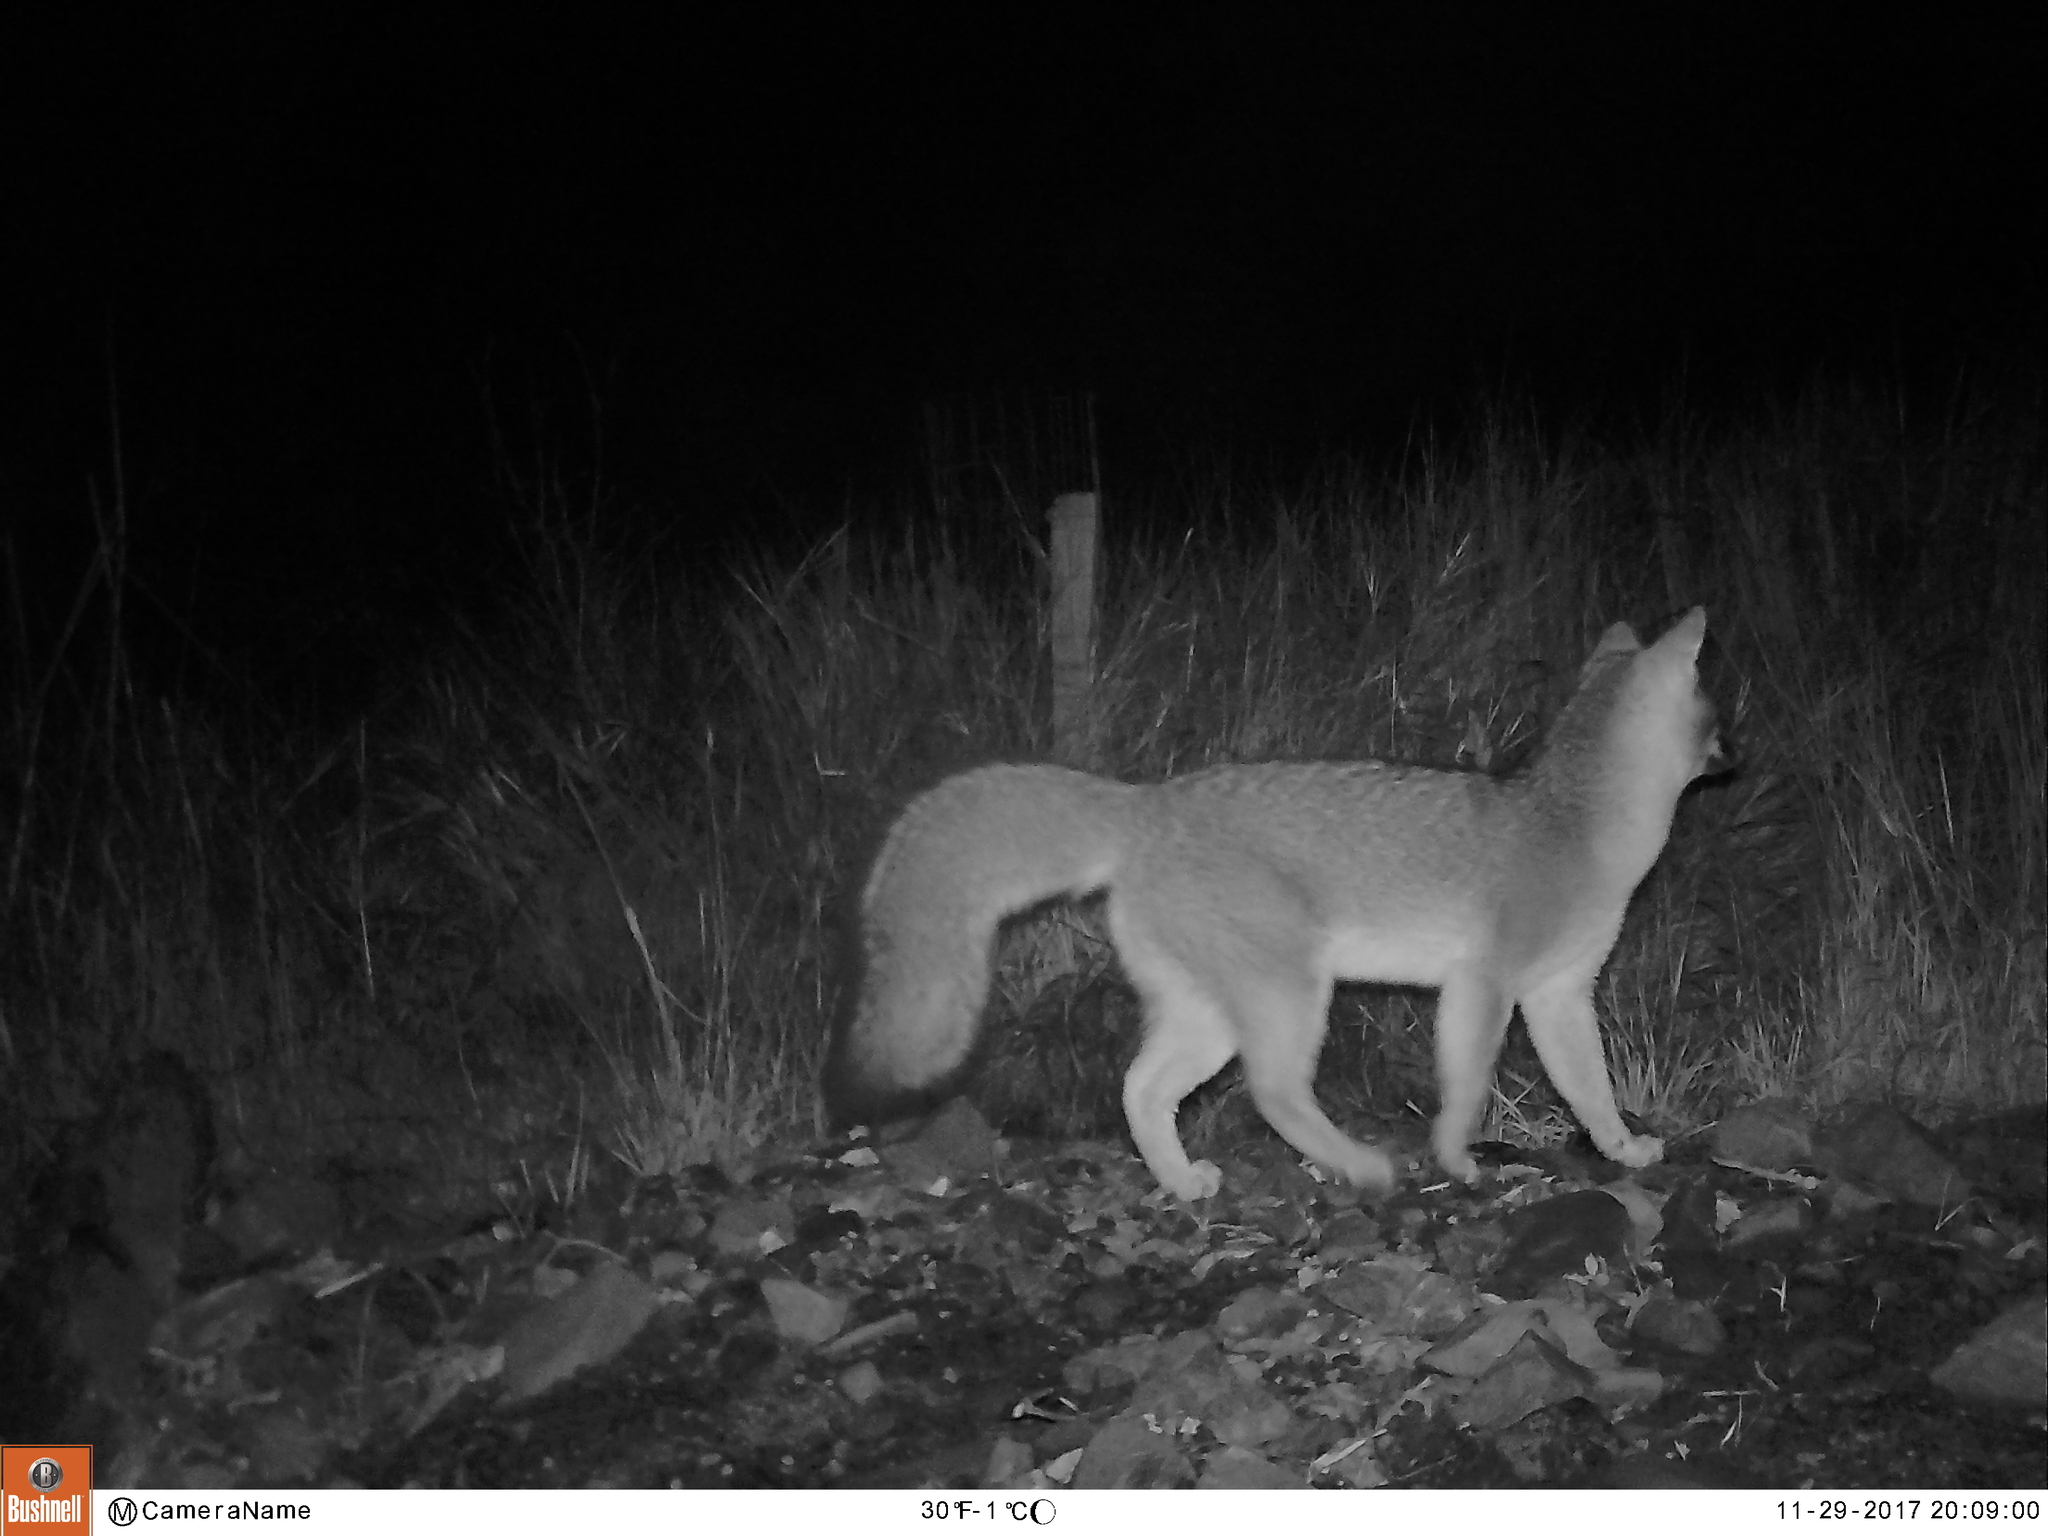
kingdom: Animalia
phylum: Chordata
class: Mammalia
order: Carnivora
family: Canidae
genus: Urocyon
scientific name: Urocyon cinereoargenteus
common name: Gray fox
